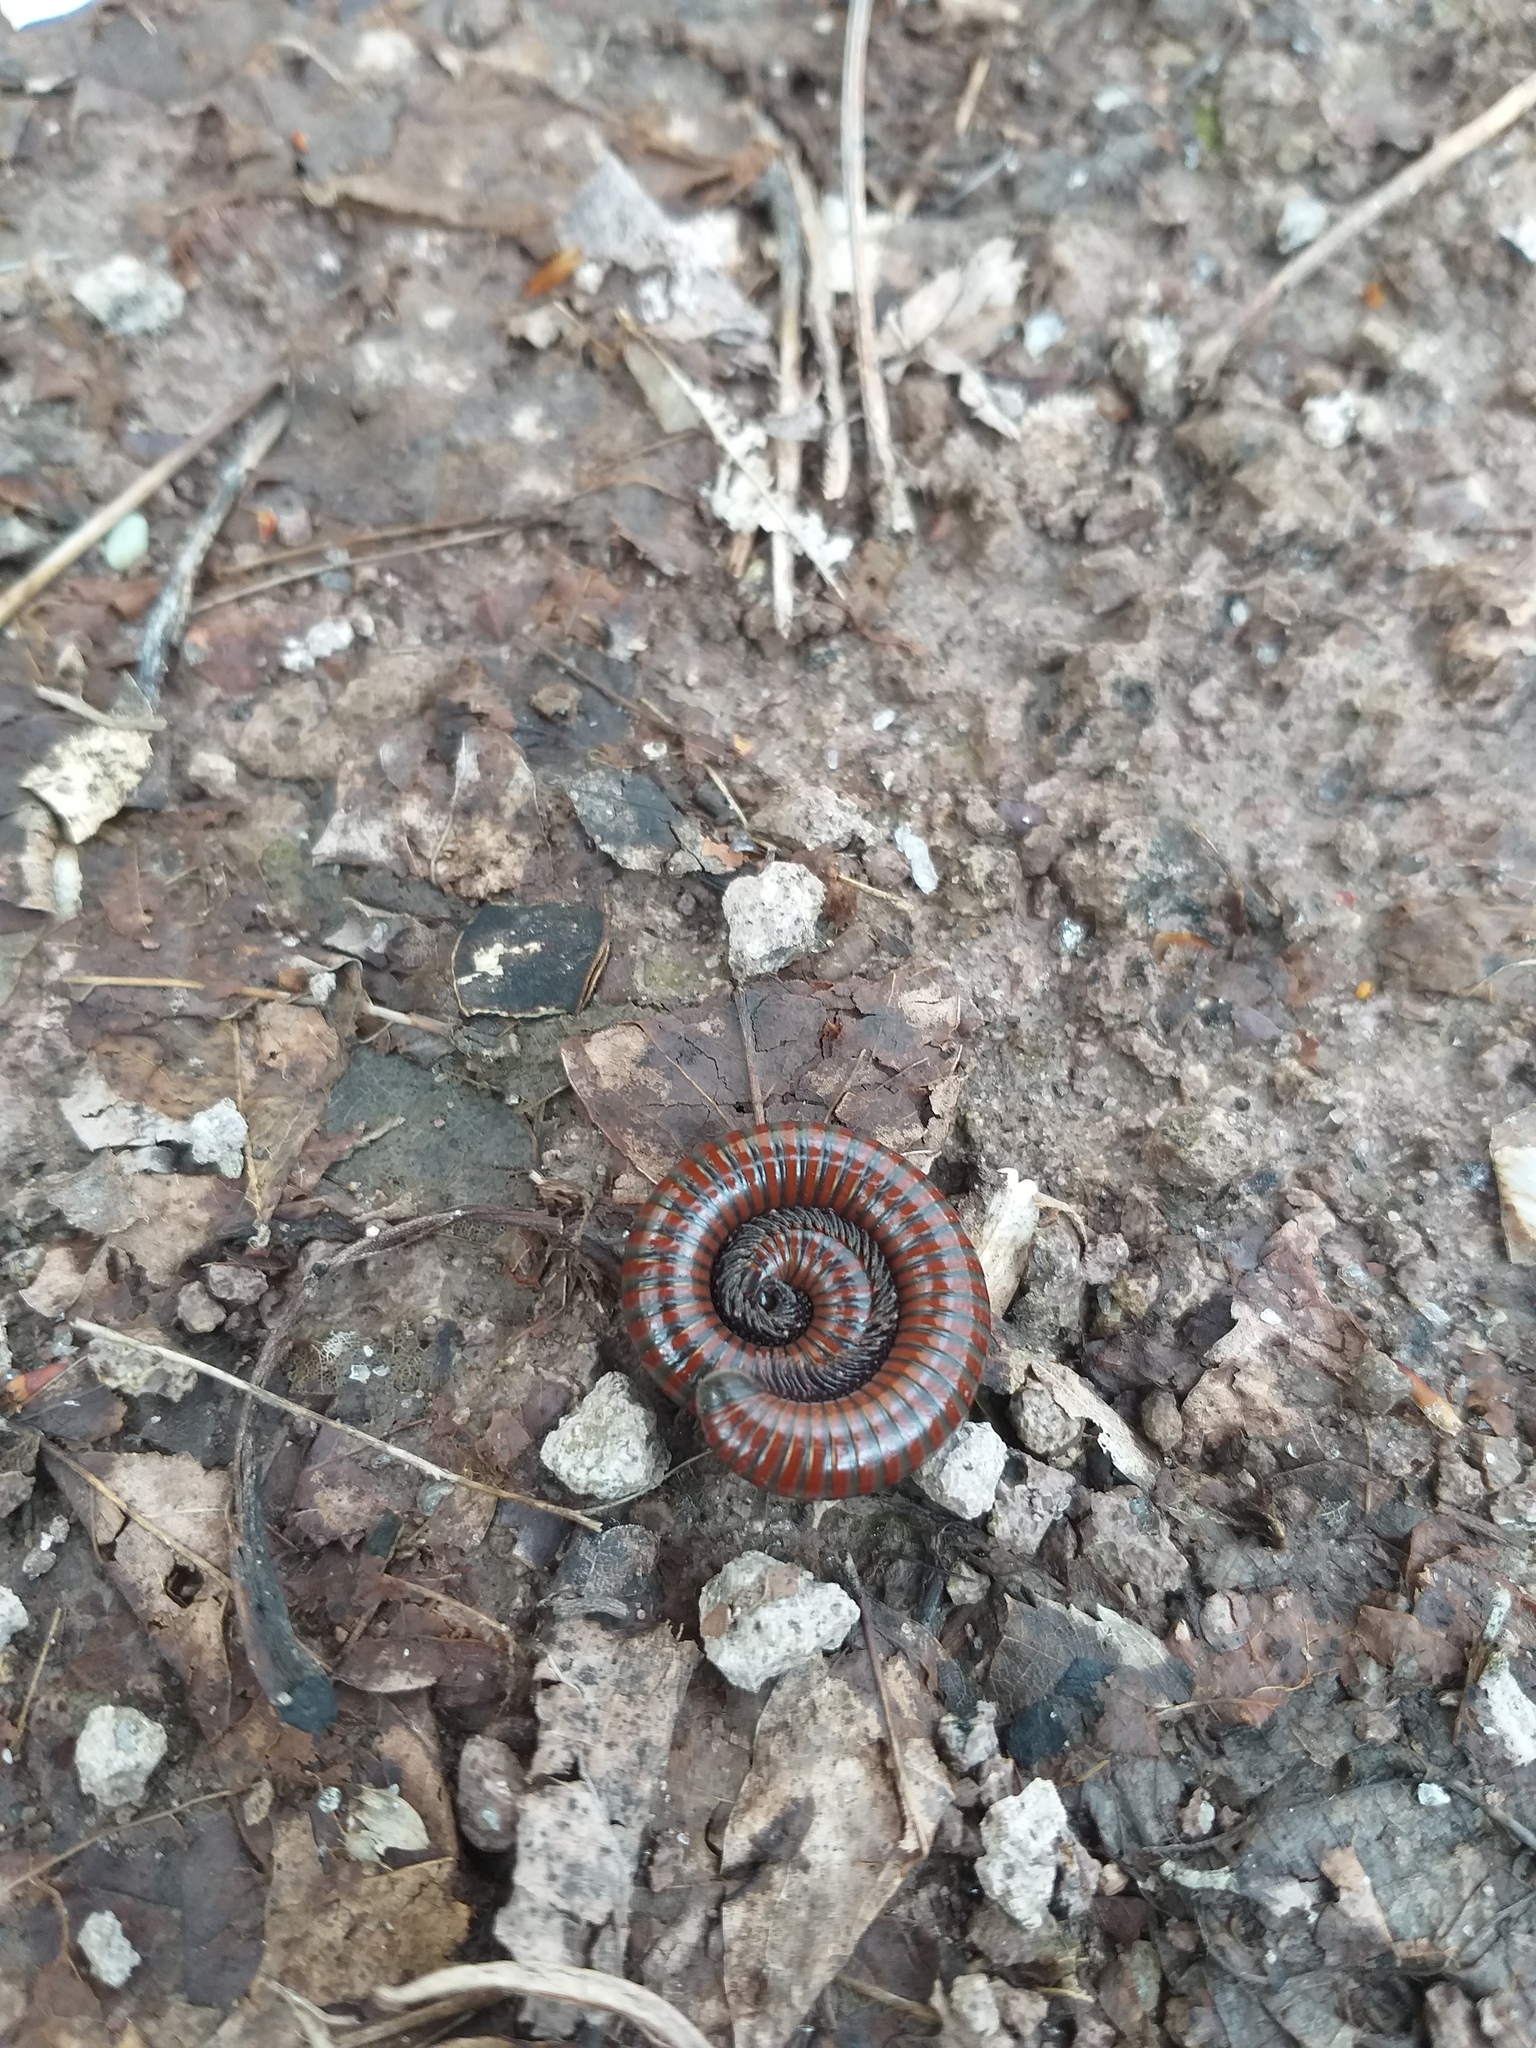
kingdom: Animalia
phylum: Arthropoda
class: Diplopoda
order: Julida
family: Julidae
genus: Pachyiulus
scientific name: Pachyiulus hungaricus
